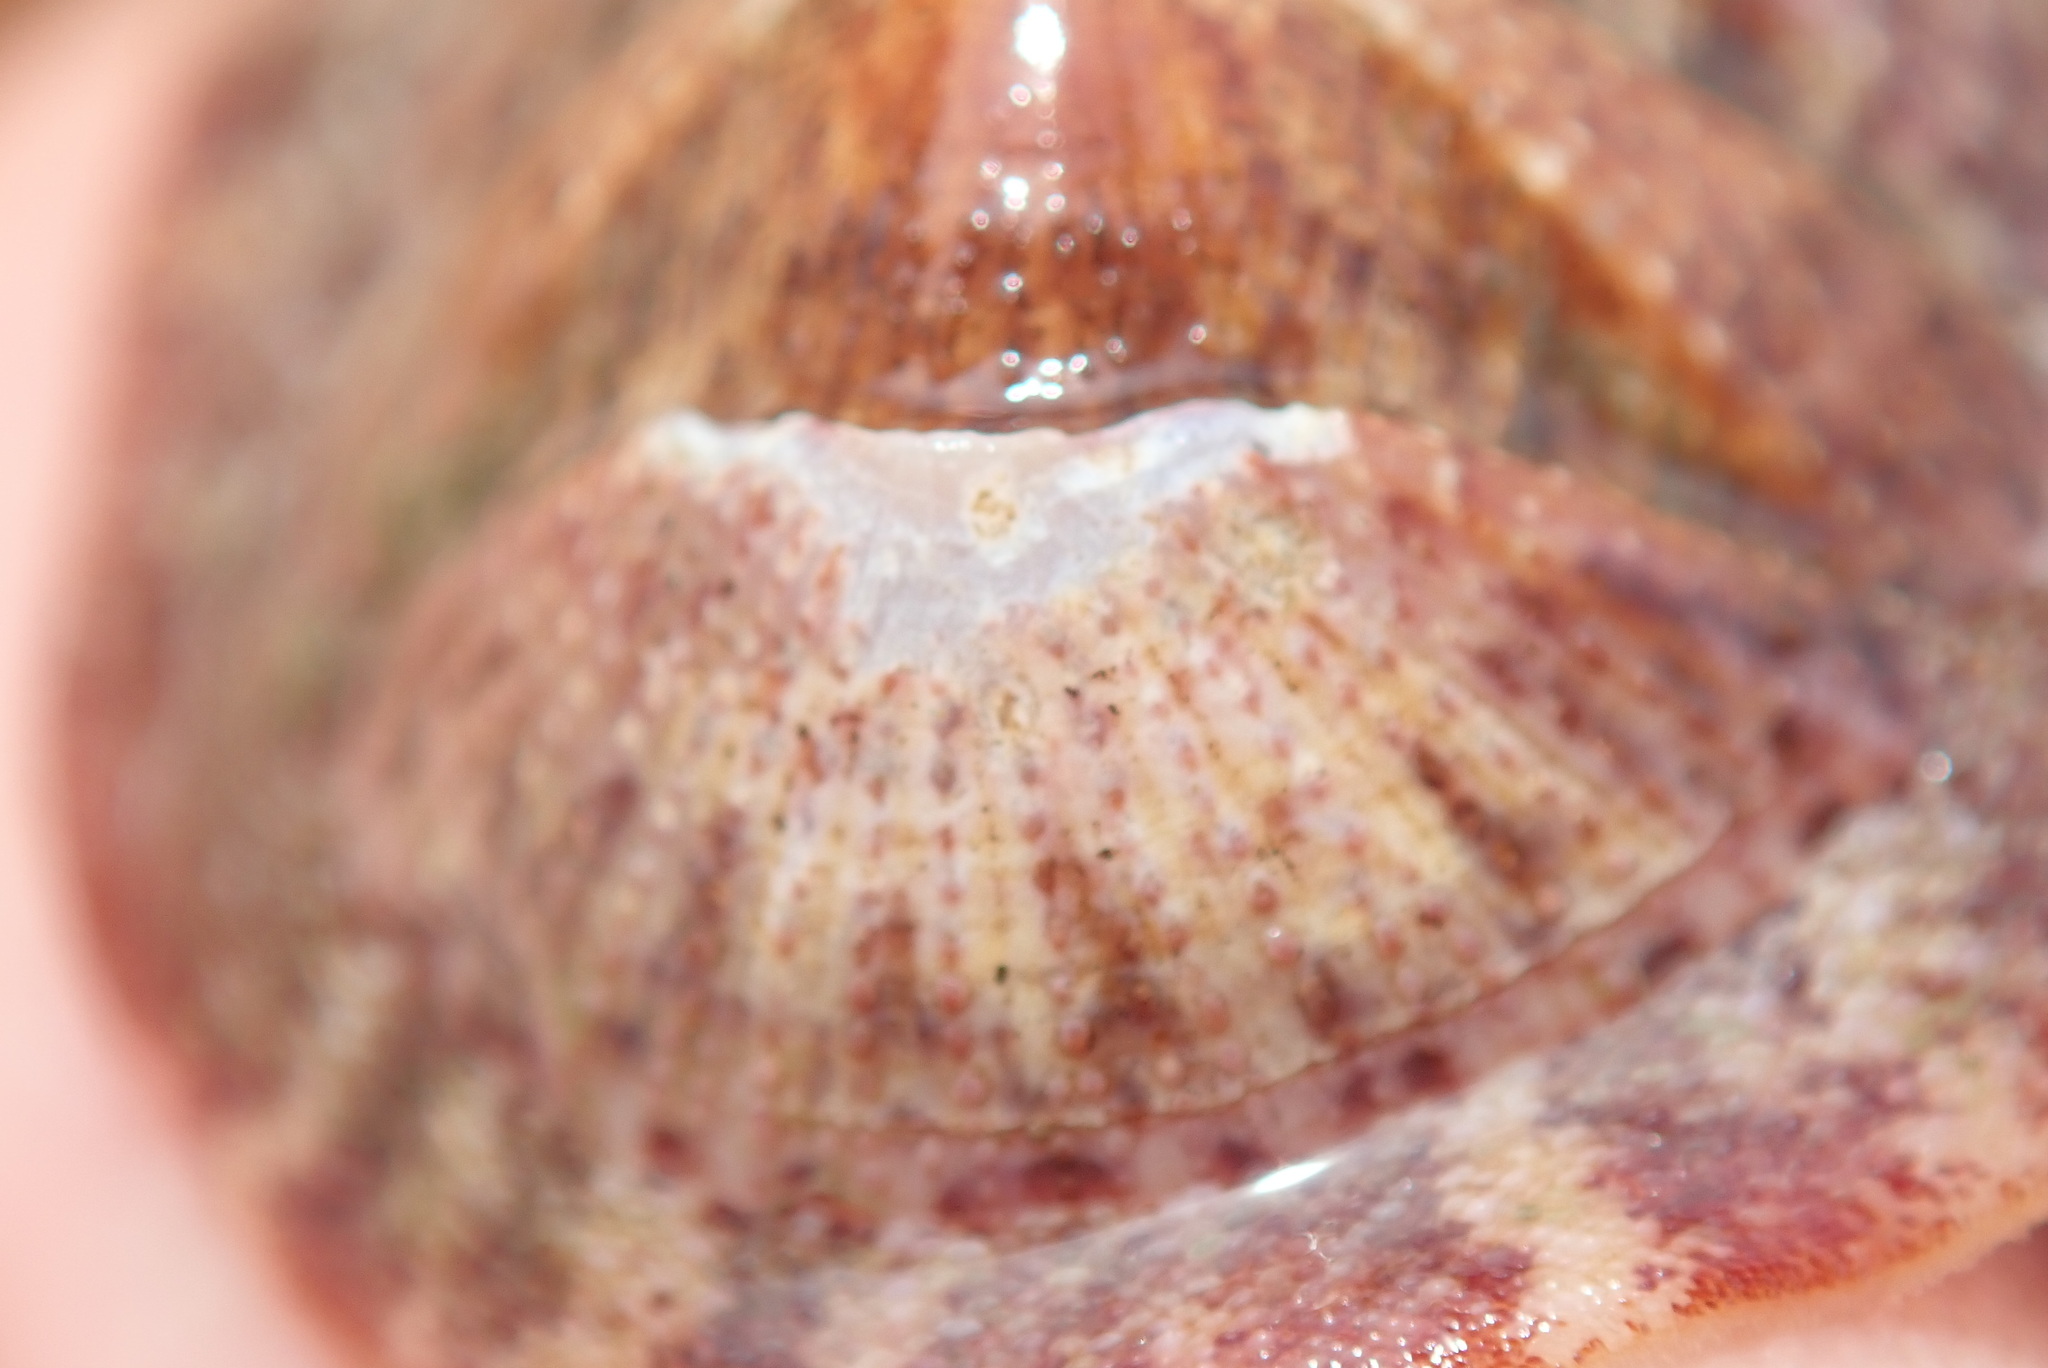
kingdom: Animalia
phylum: Mollusca
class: Polyplacophora
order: Chitonida
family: Ischnochitonidae
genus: Lepidozona
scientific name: Lepidozona mertensii
